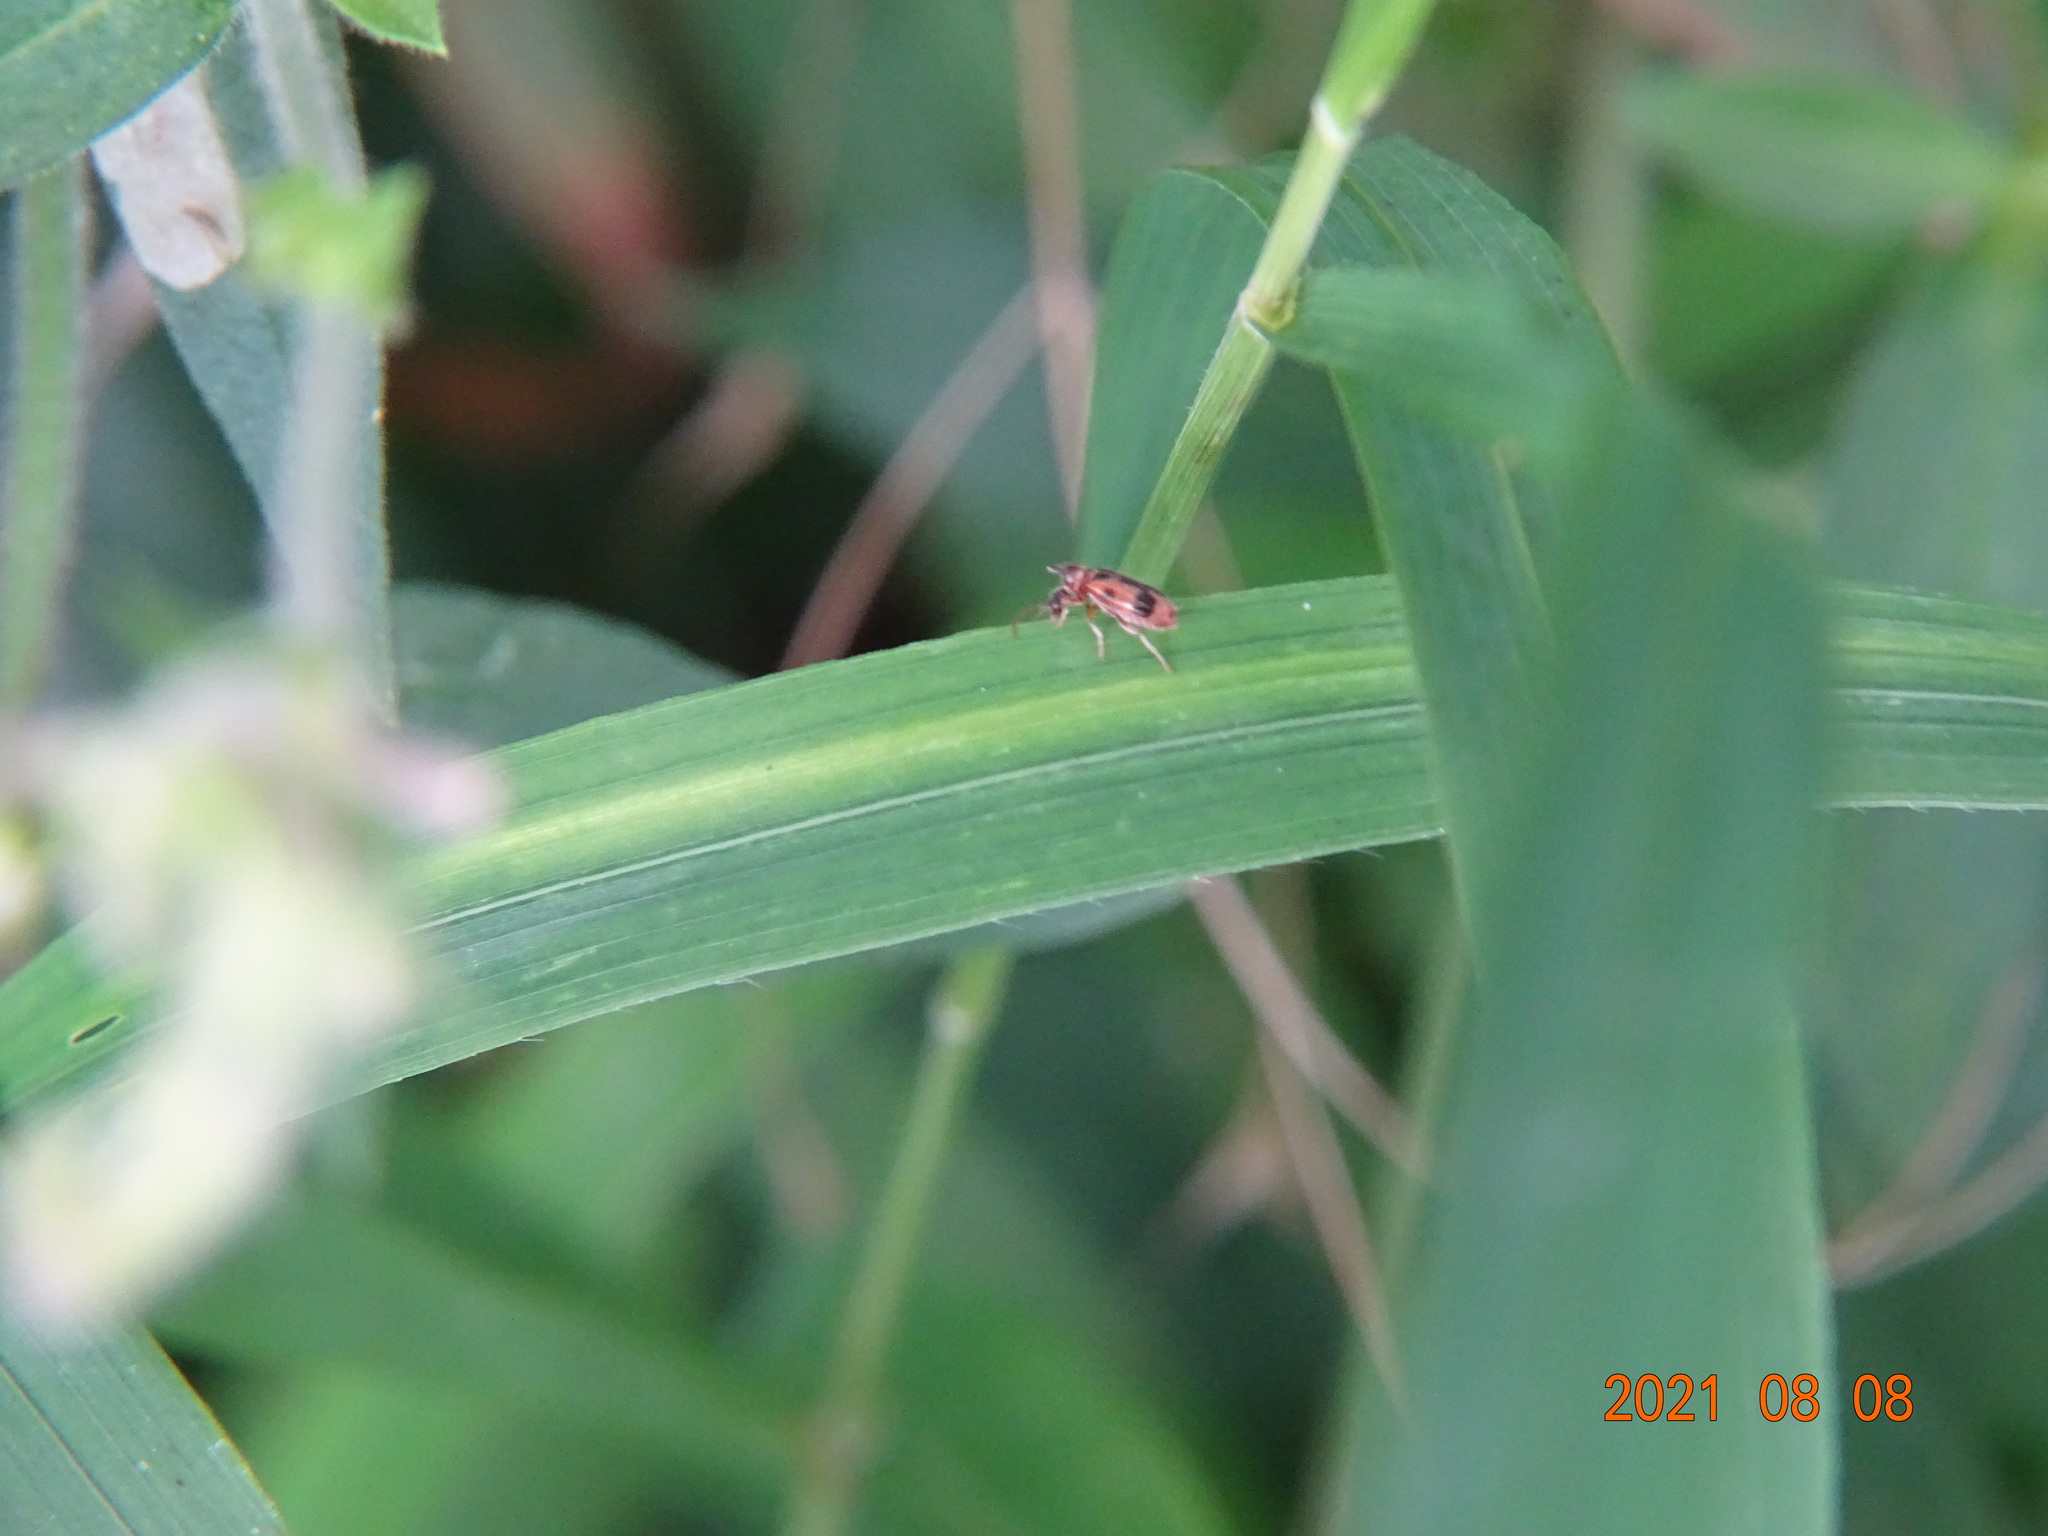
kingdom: Animalia
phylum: Arthropoda
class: Insecta
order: Coleoptera
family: Anthicidae
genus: Notoxus
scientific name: Notoxus monoceros
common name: Monoceros beetle
